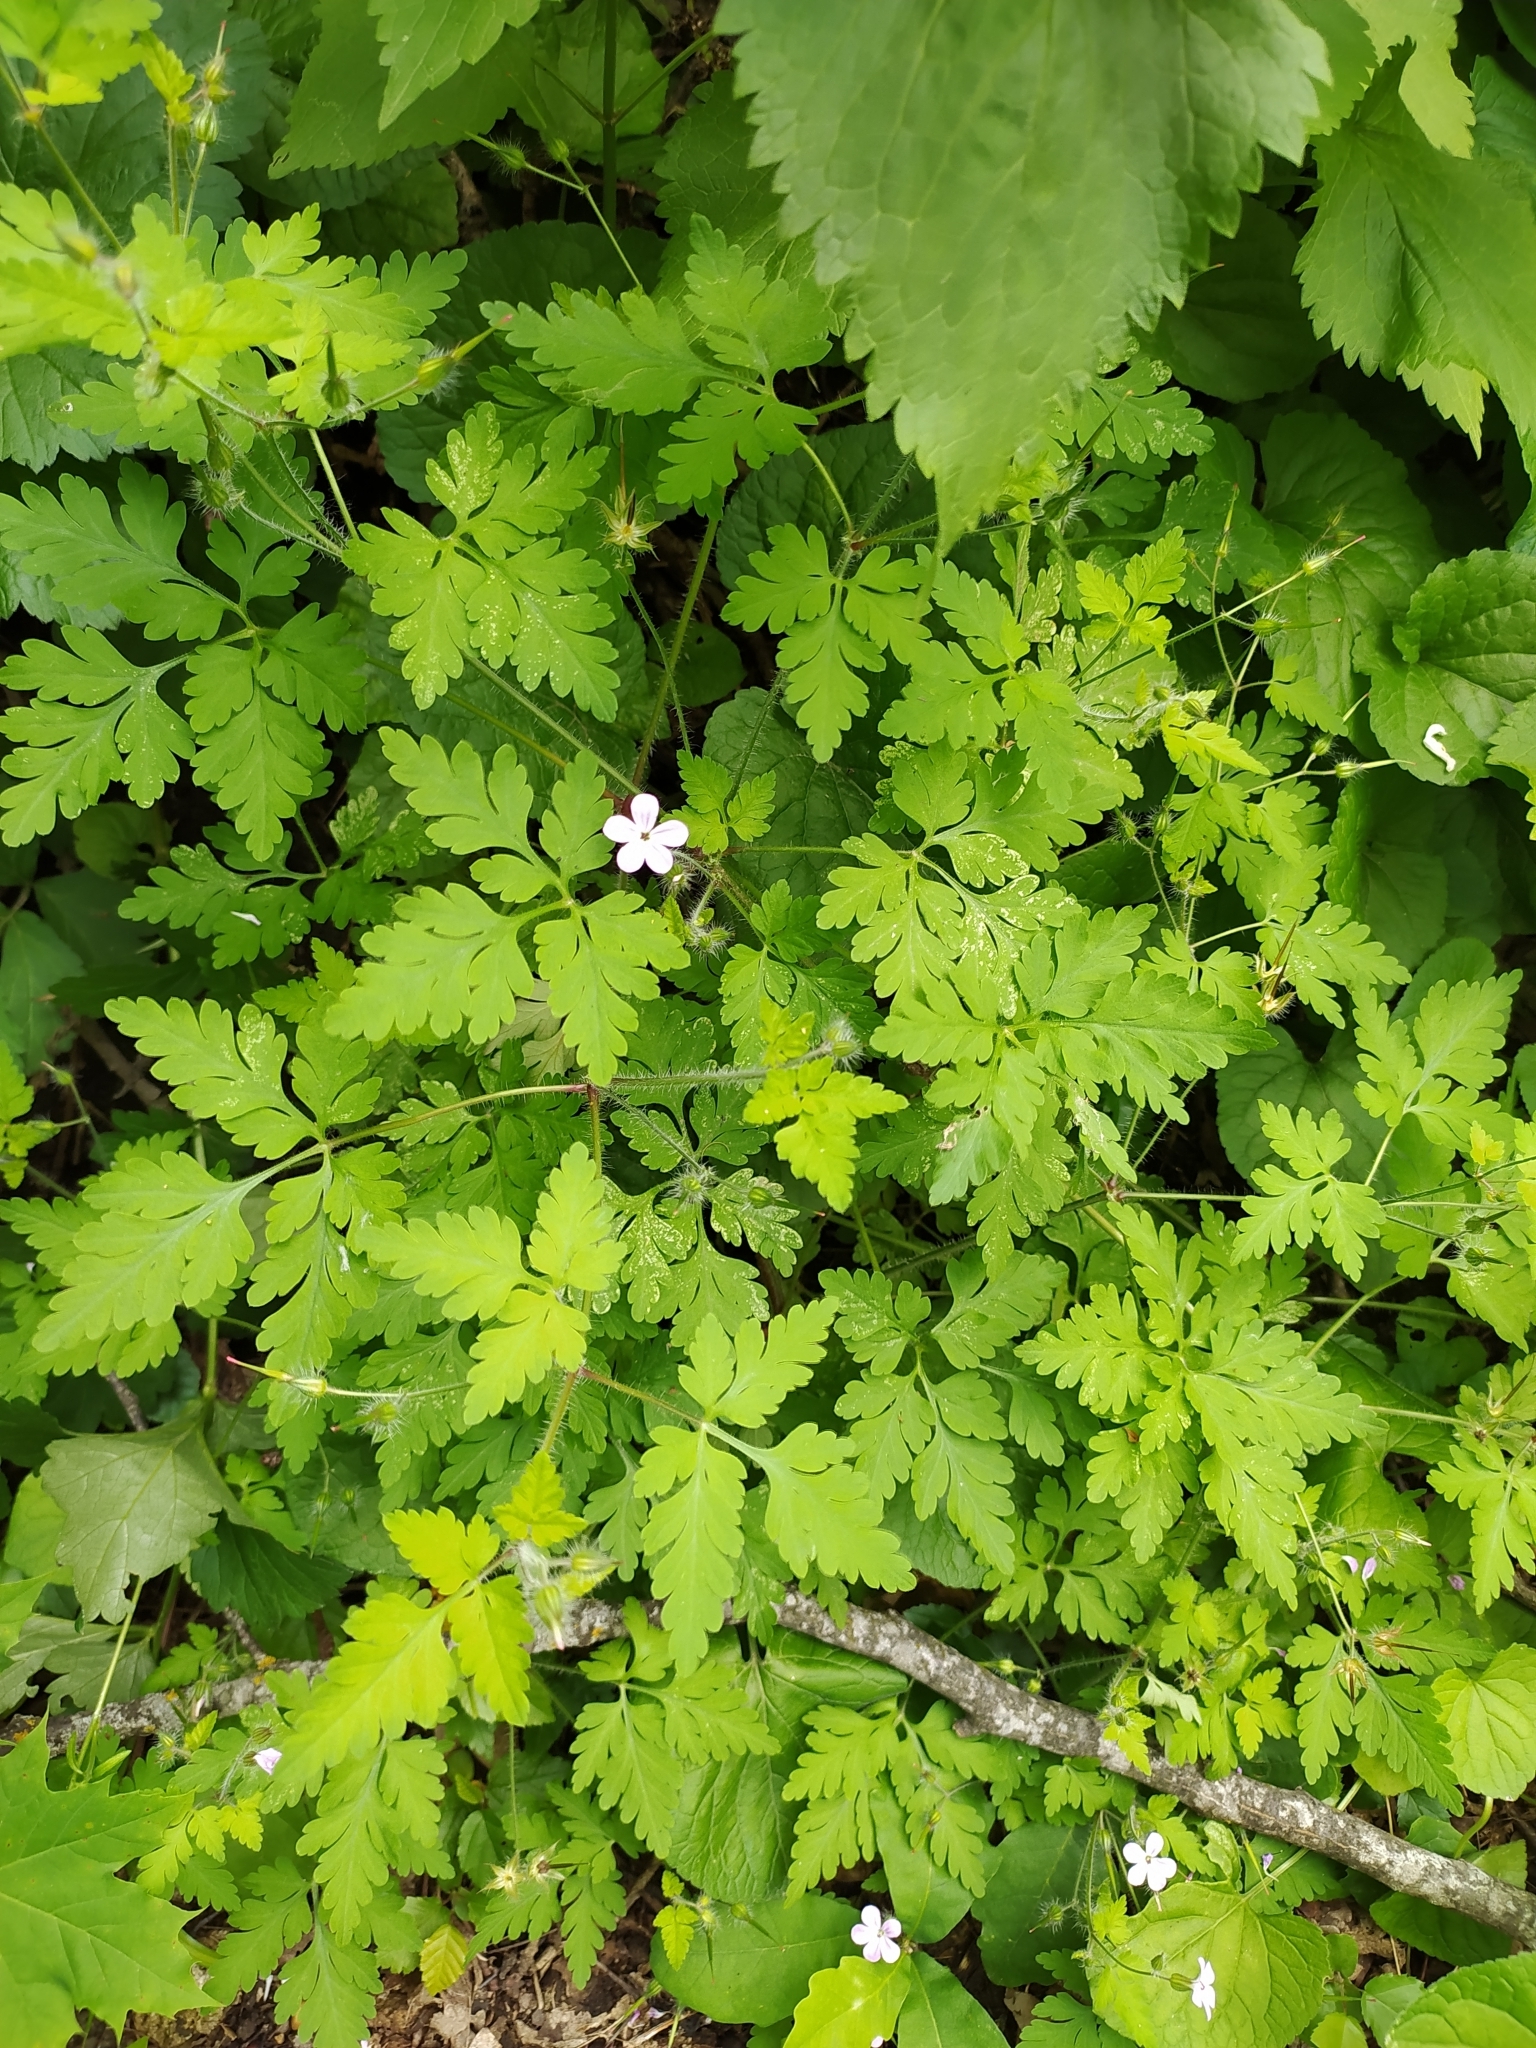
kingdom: Plantae
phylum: Tracheophyta
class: Magnoliopsida
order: Geraniales
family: Geraniaceae
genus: Geranium
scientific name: Geranium robertianum
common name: Herb-robert
